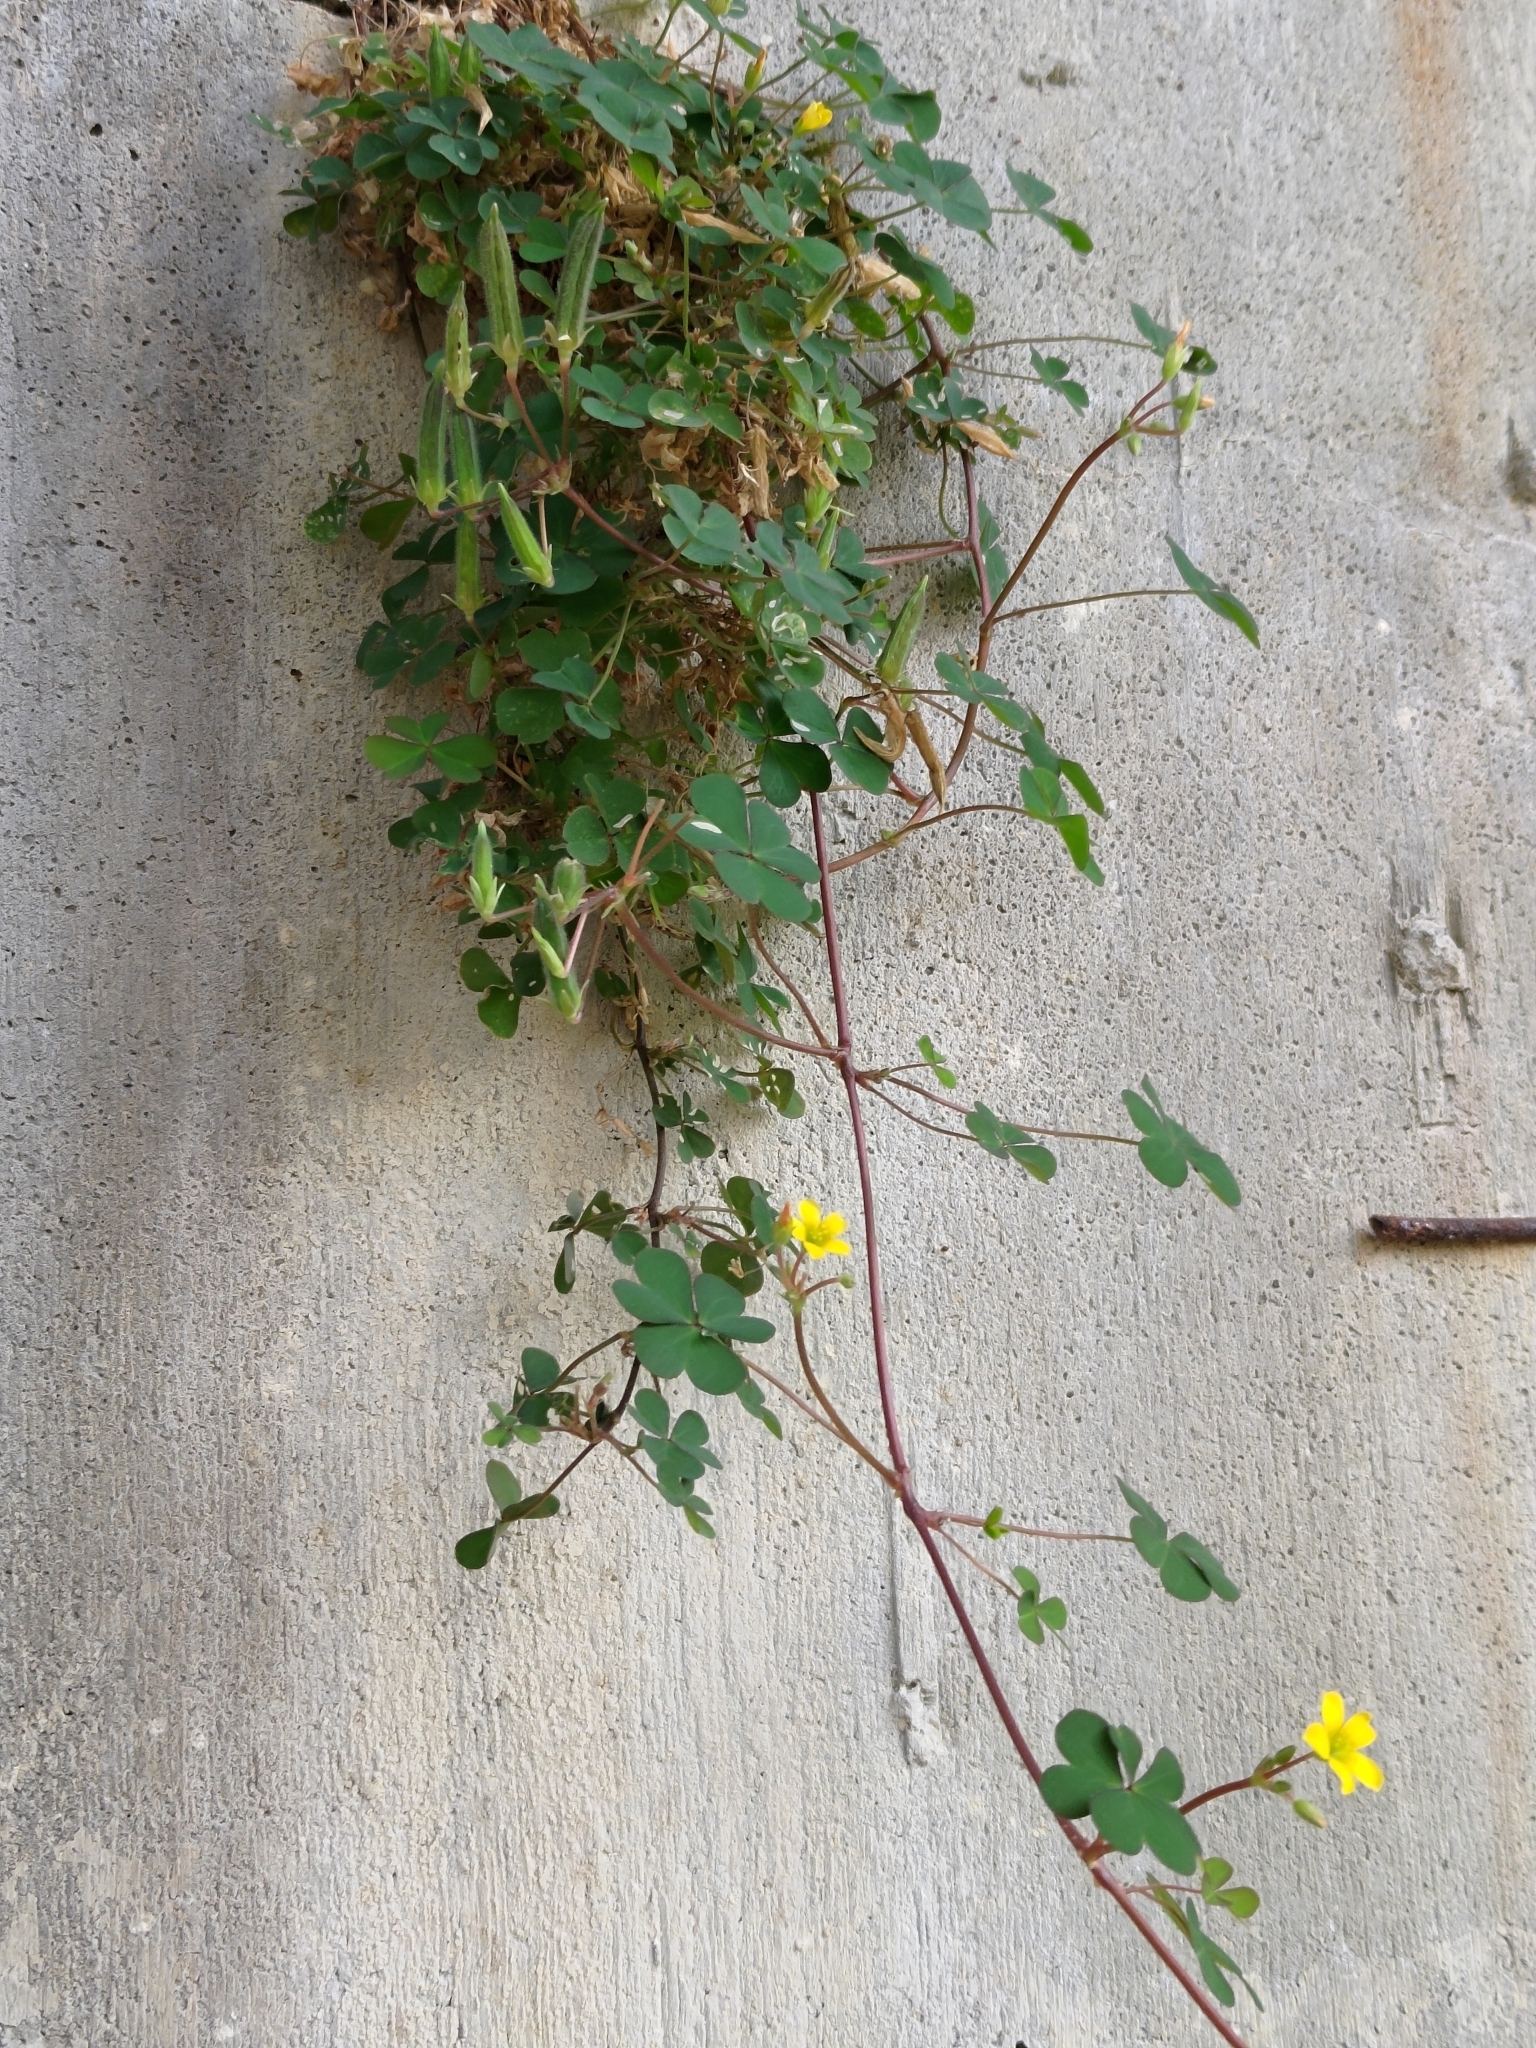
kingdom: Plantae
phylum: Tracheophyta
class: Magnoliopsida
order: Oxalidales
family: Oxalidaceae
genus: Oxalis
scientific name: Oxalis corniculata
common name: Procumbent yellow-sorrel
